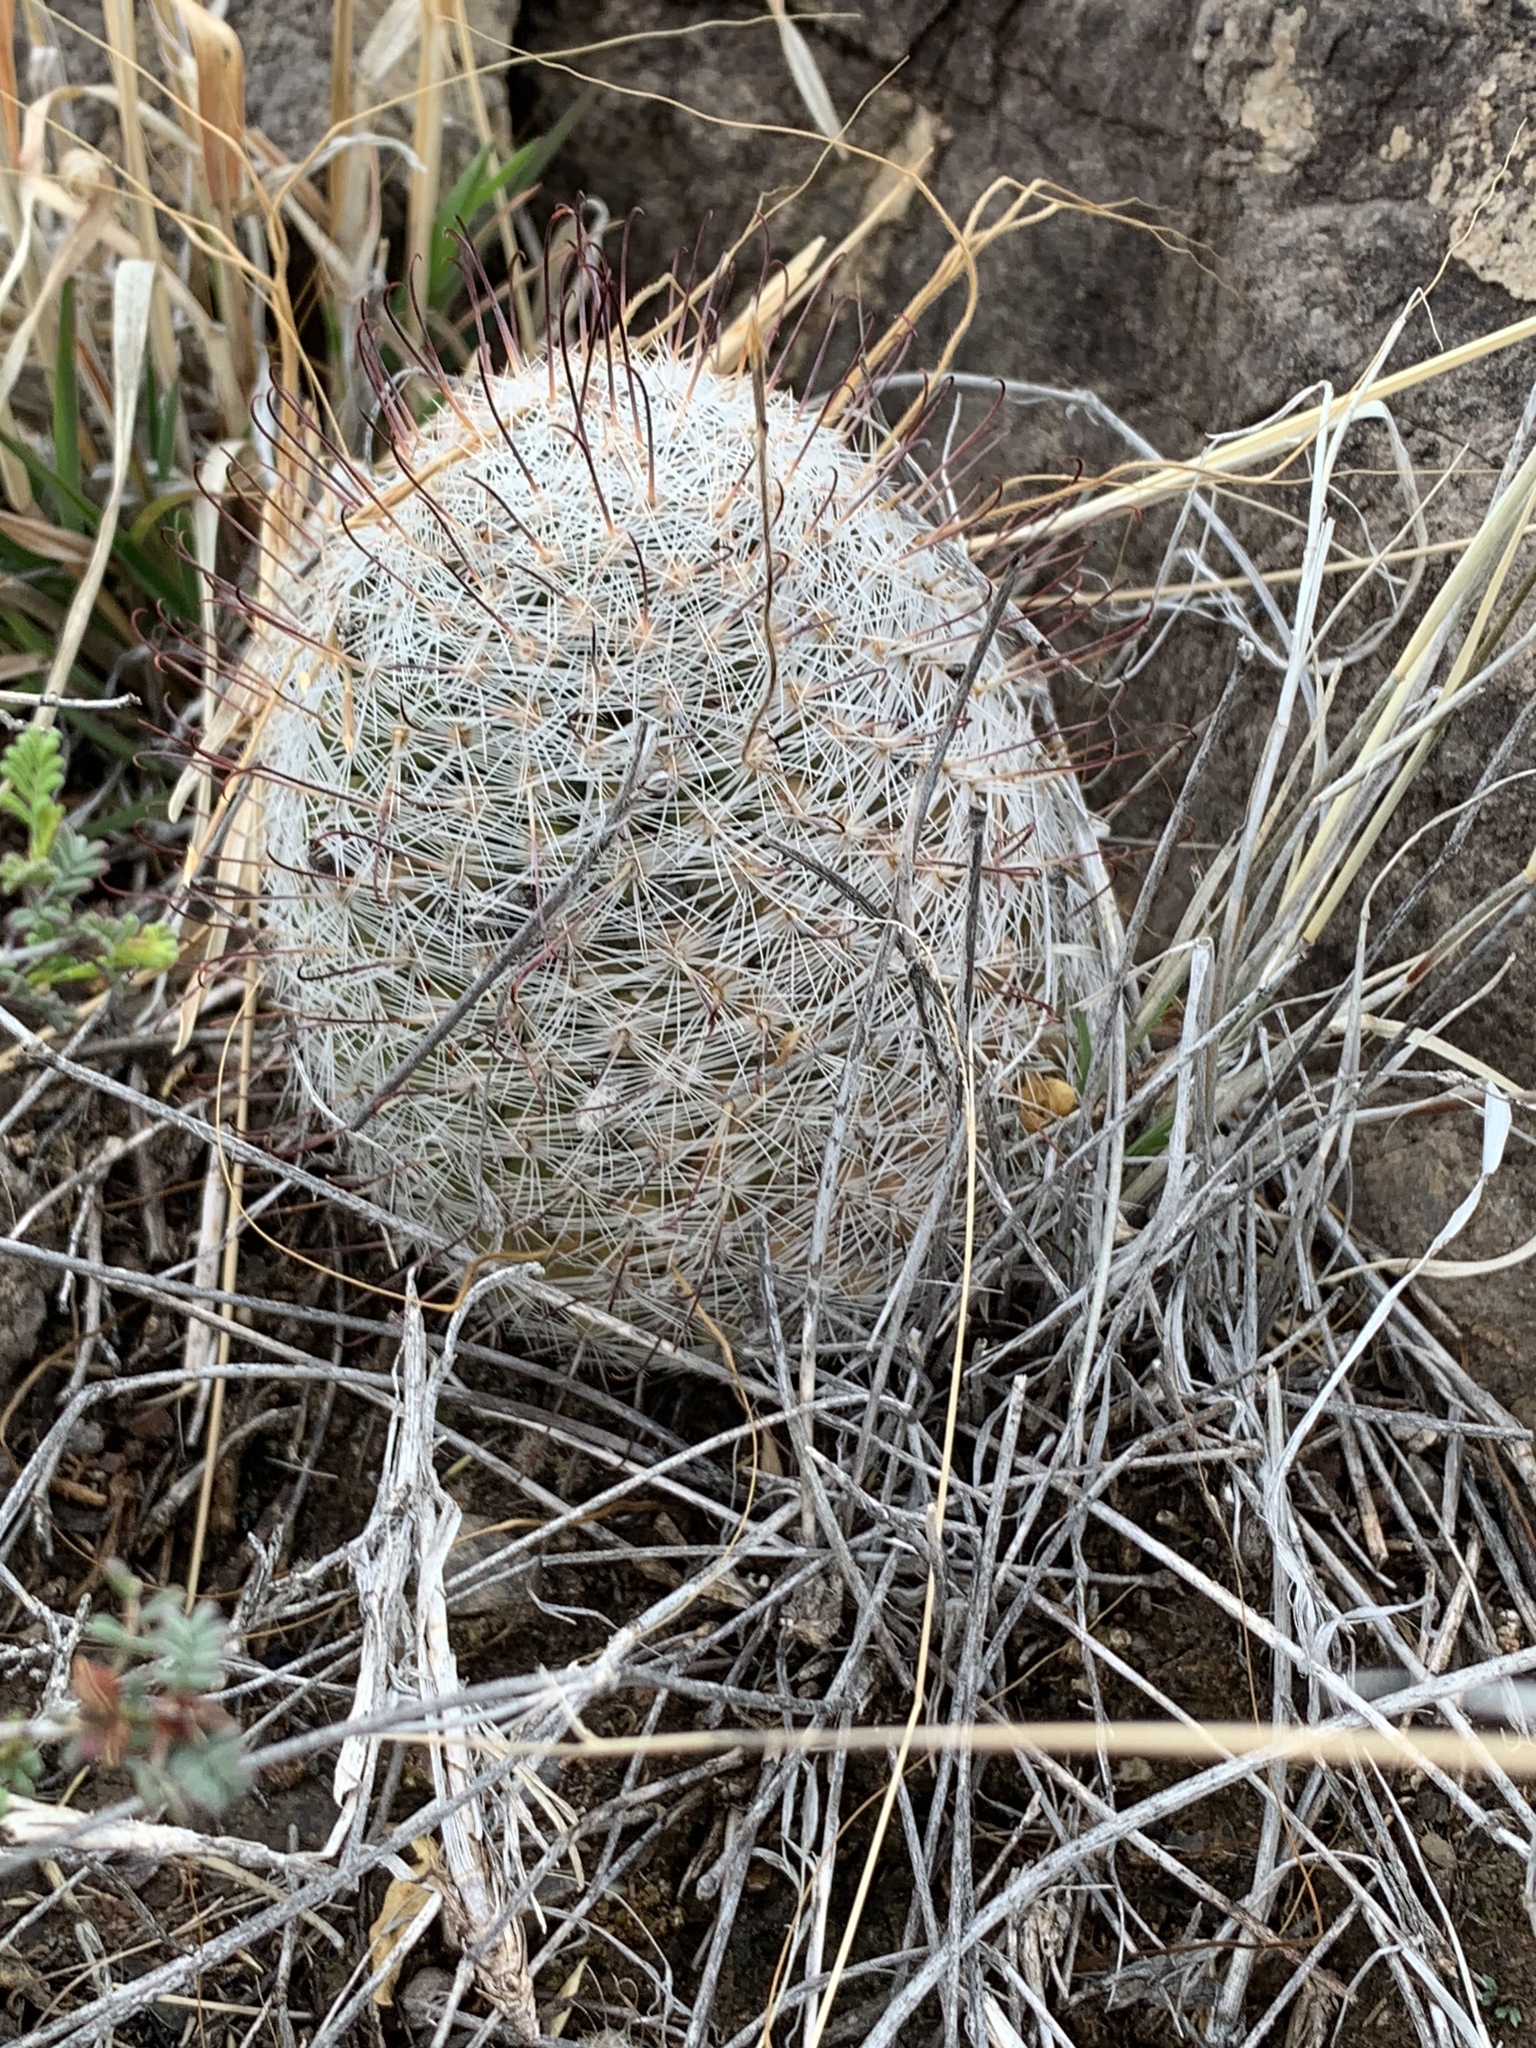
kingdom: Plantae
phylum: Tracheophyta
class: Magnoliopsida
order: Caryophyllales
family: Cactaceae
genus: Cochemiea
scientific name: Cochemiea grahamii
